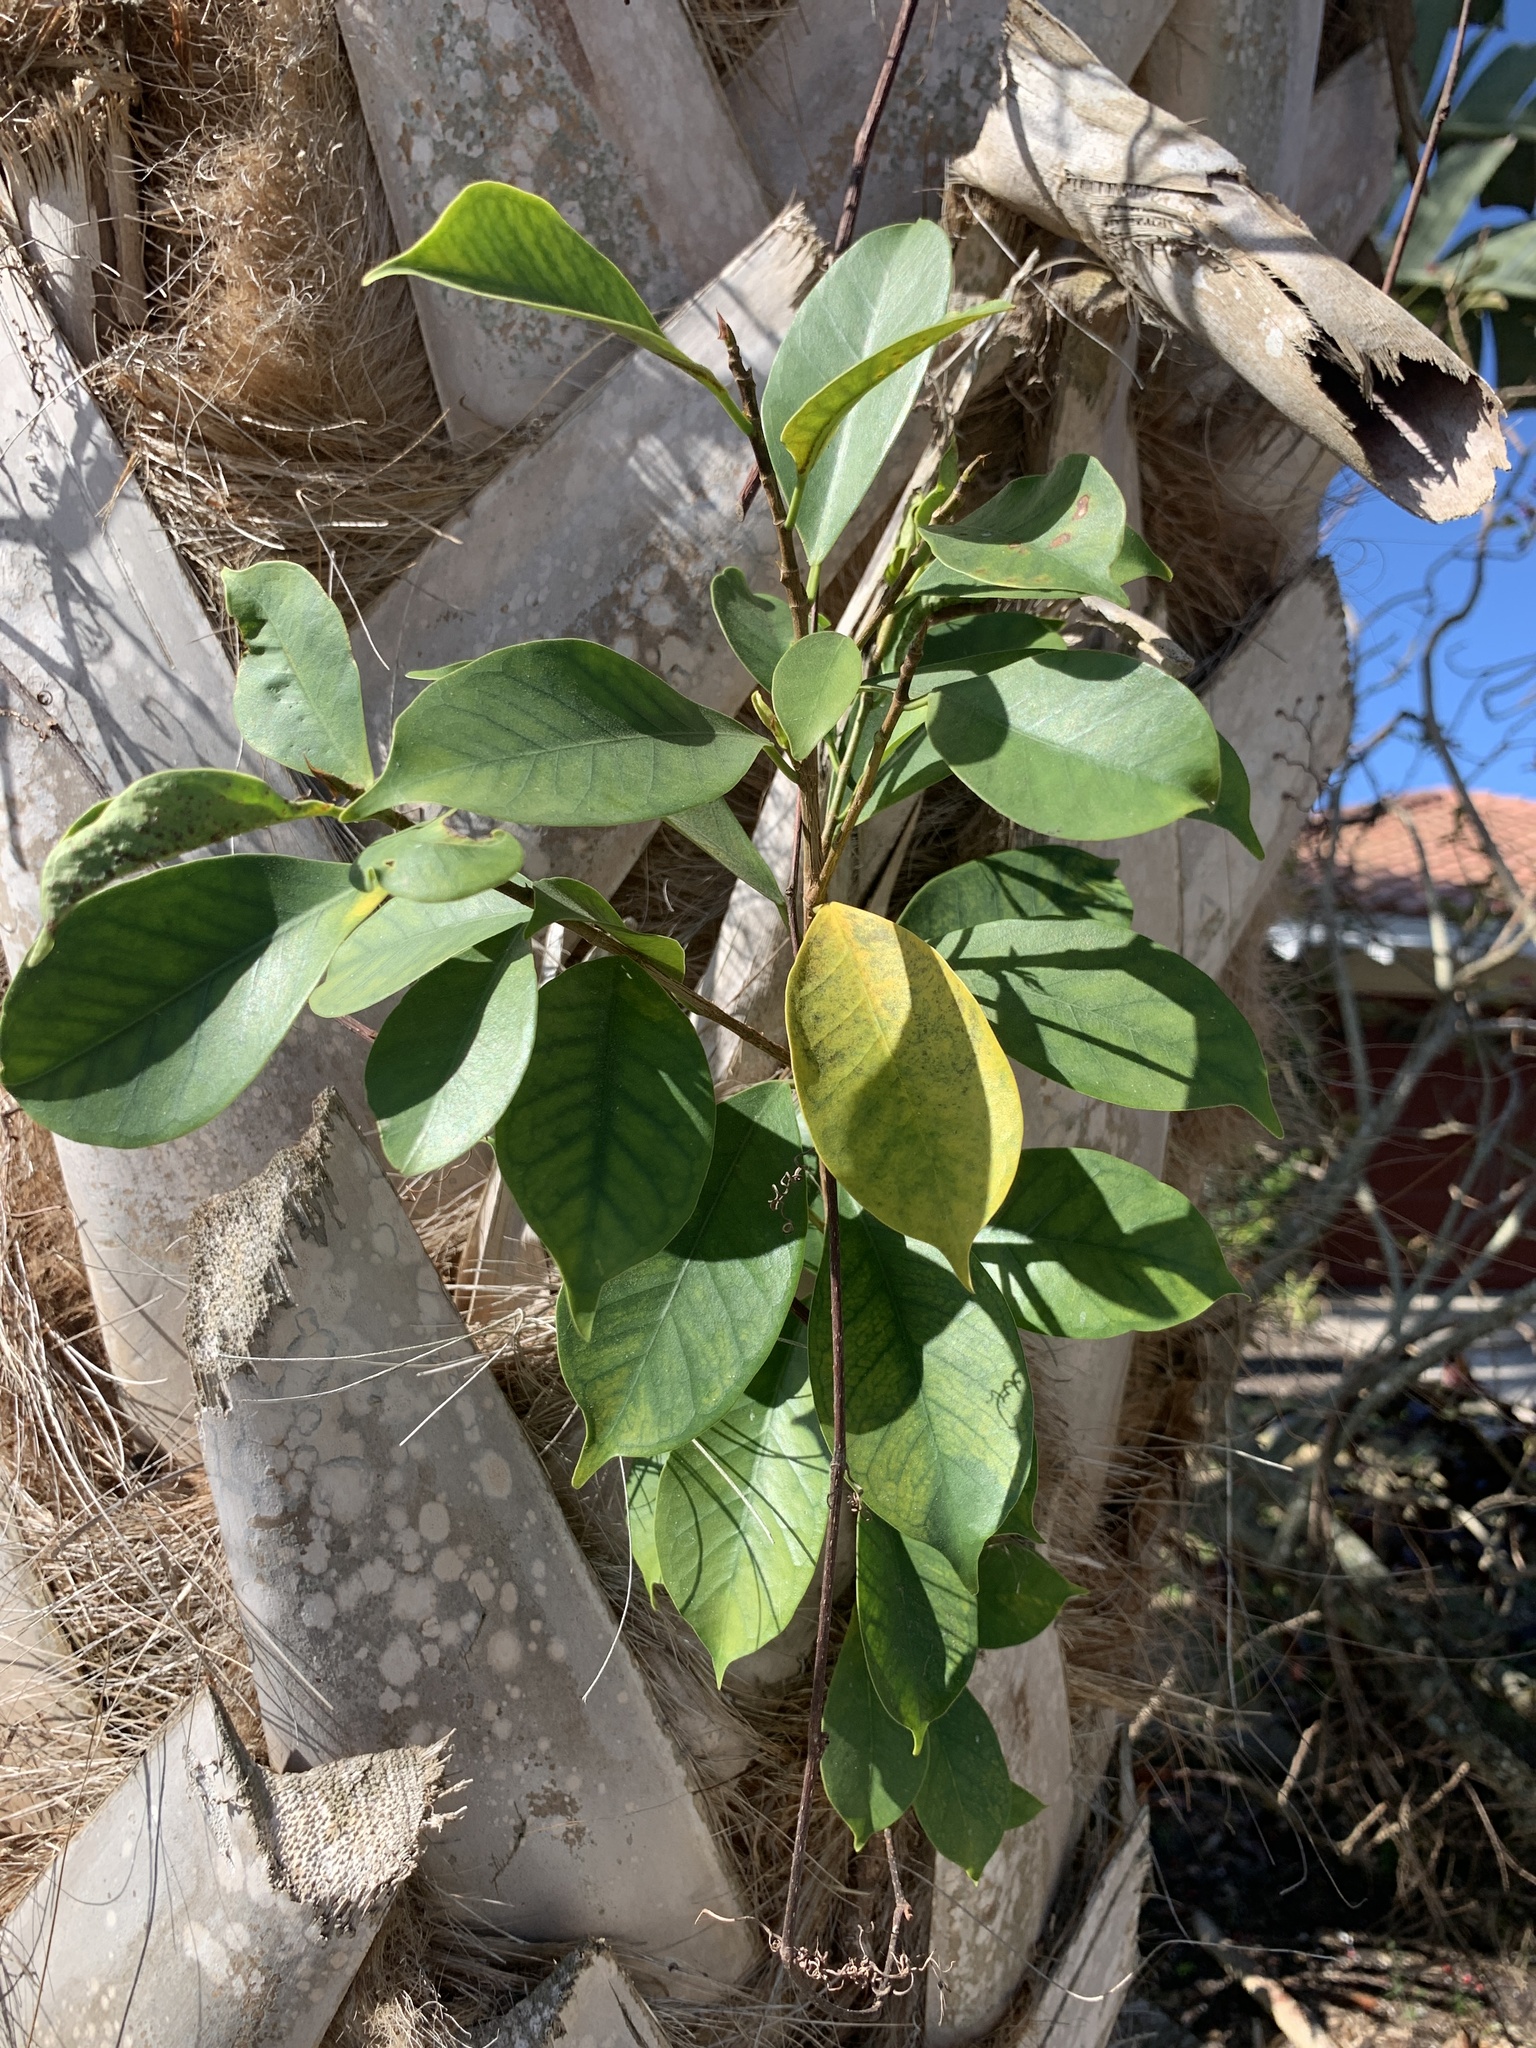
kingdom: Plantae
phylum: Tracheophyta
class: Magnoliopsida
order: Rosales
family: Moraceae
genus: Ficus
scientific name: Ficus microcarpa
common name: Chinese banyan
